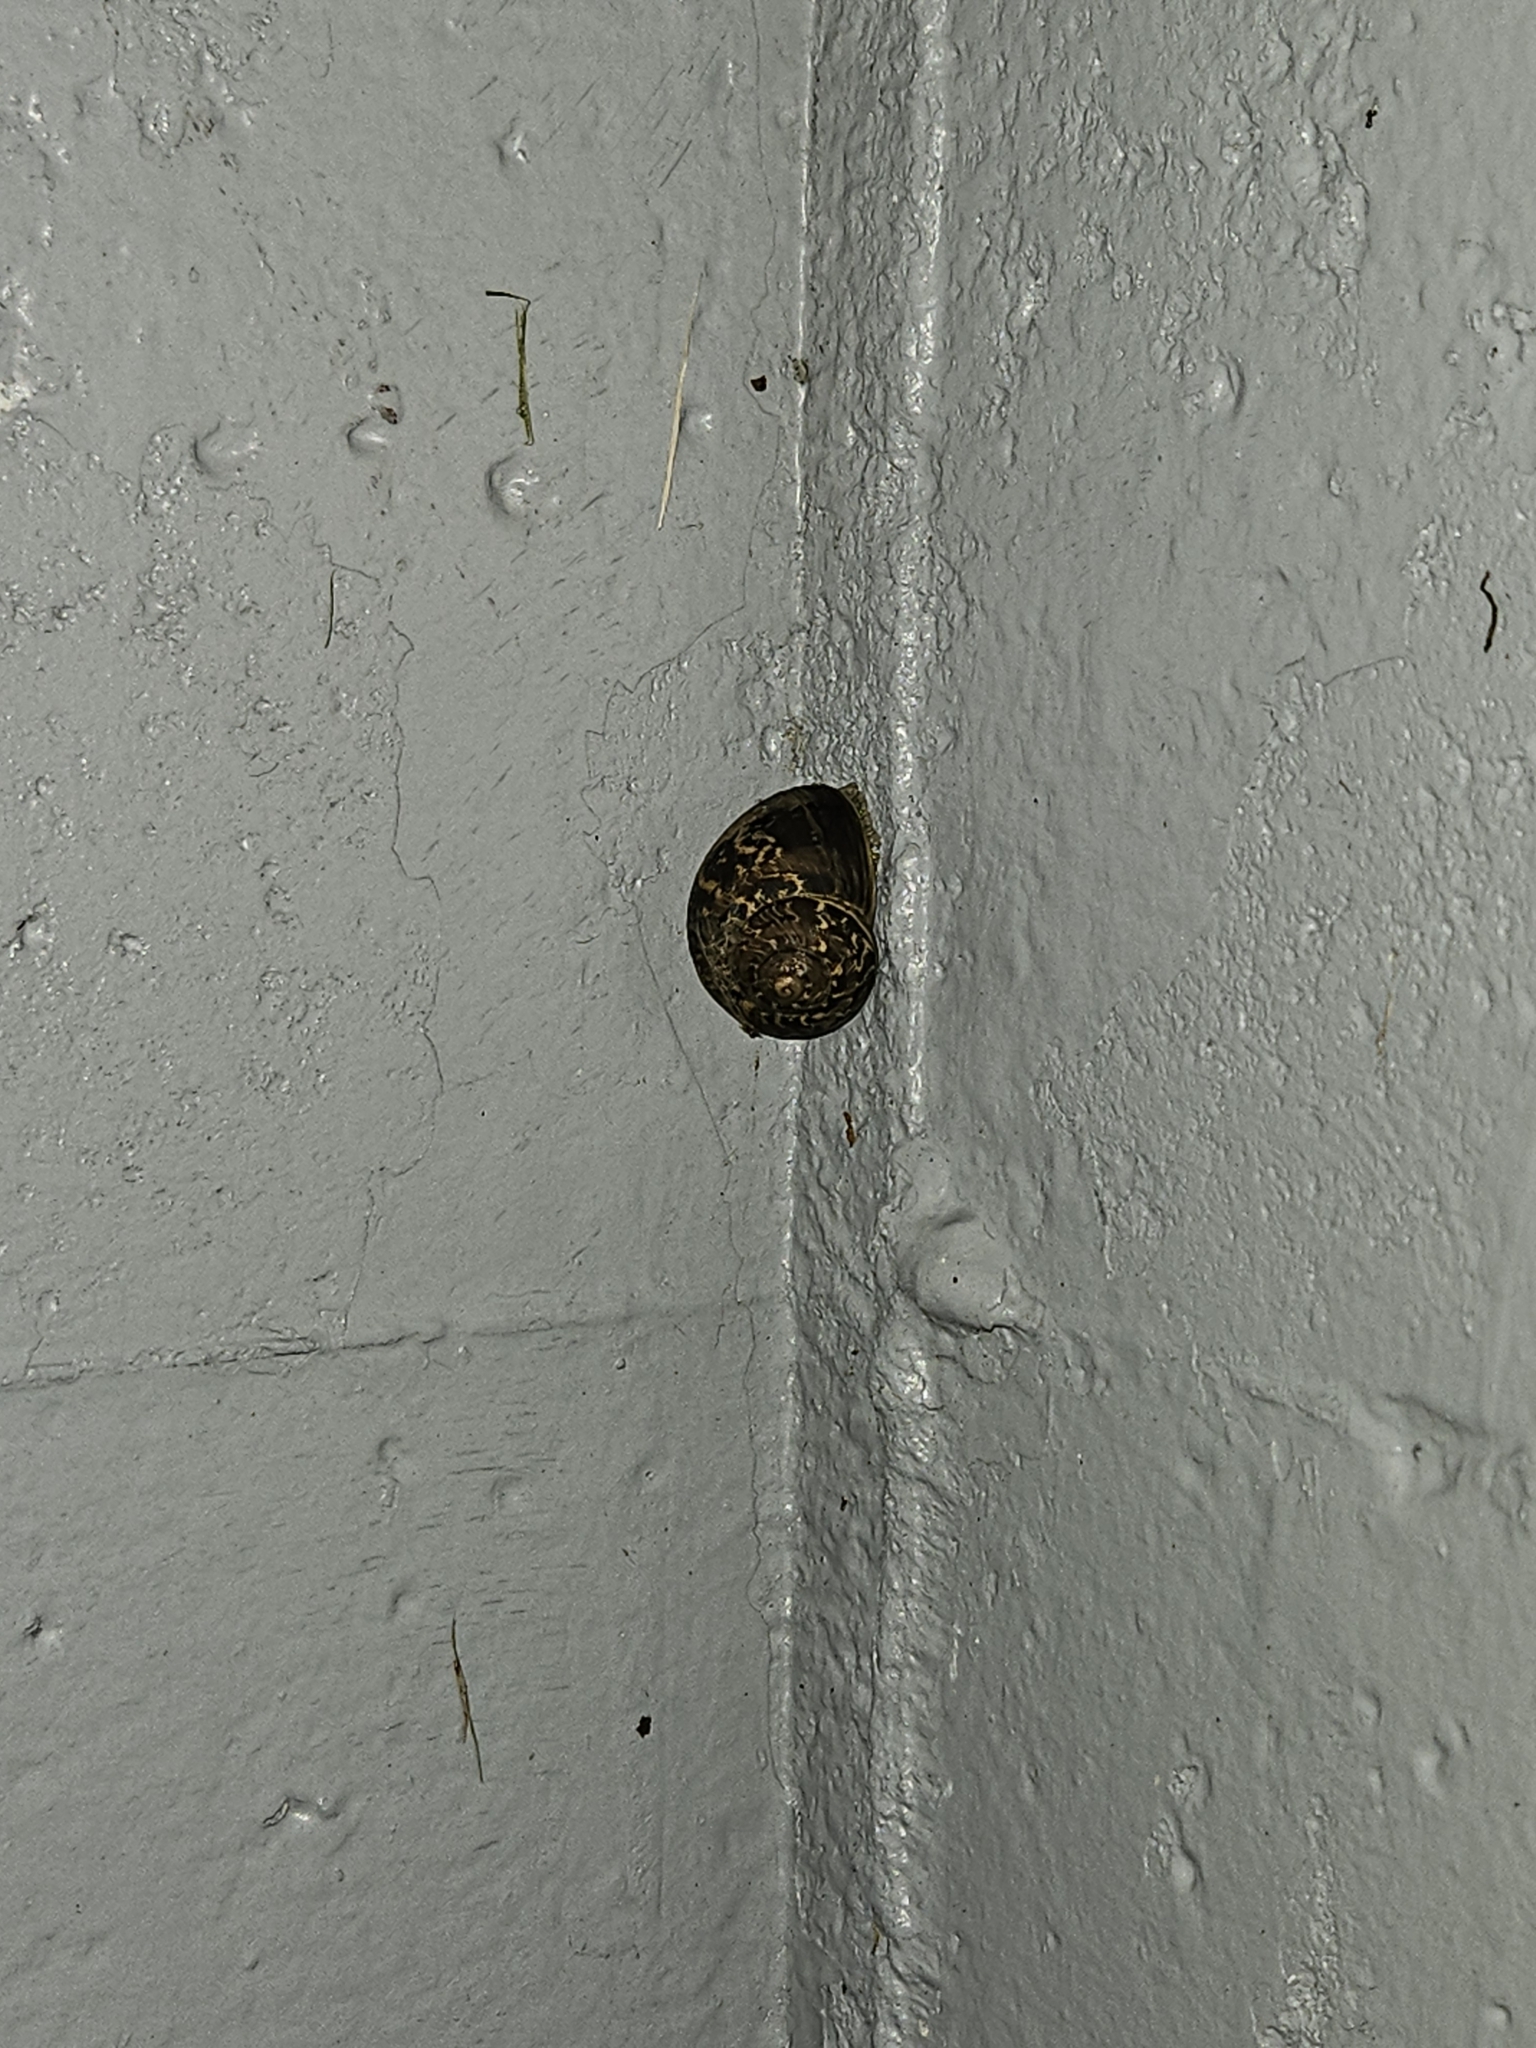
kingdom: Animalia
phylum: Mollusca
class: Gastropoda
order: Stylommatophora
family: Helicidae
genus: Cornu
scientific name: Cornu aspersum
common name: Brown garden snail
